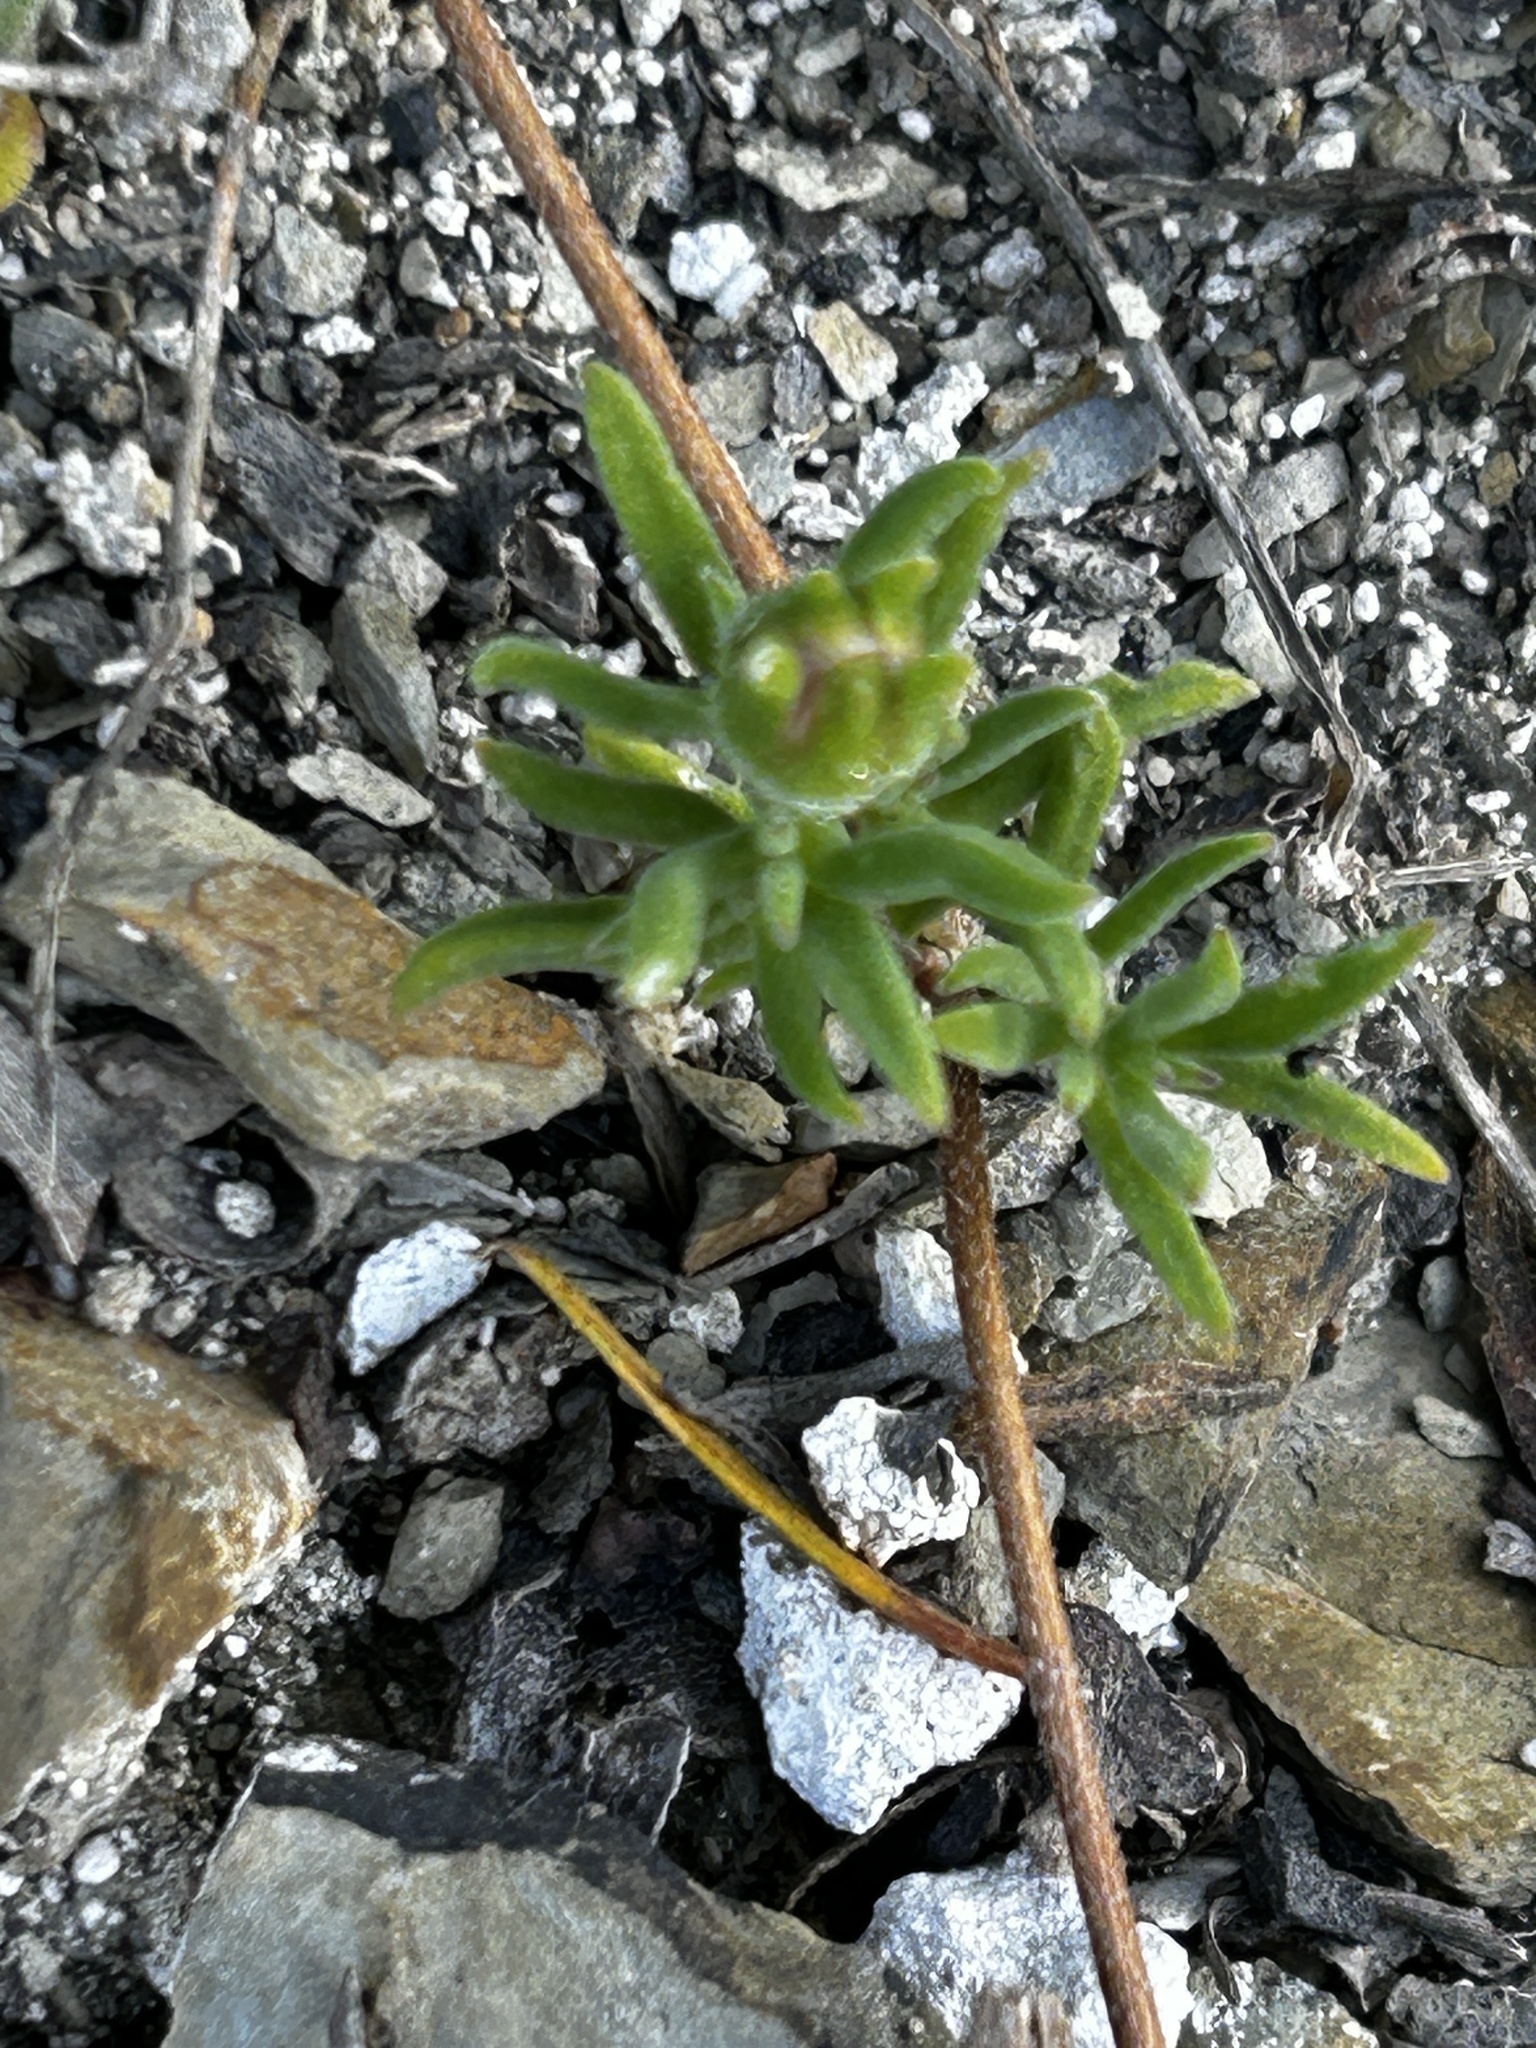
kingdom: Plantae
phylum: Tracheophyta
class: Magnoliopsida
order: Caryophyllales
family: Aizoaceae
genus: Drosanthemum
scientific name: Drosanthemum calcareum
